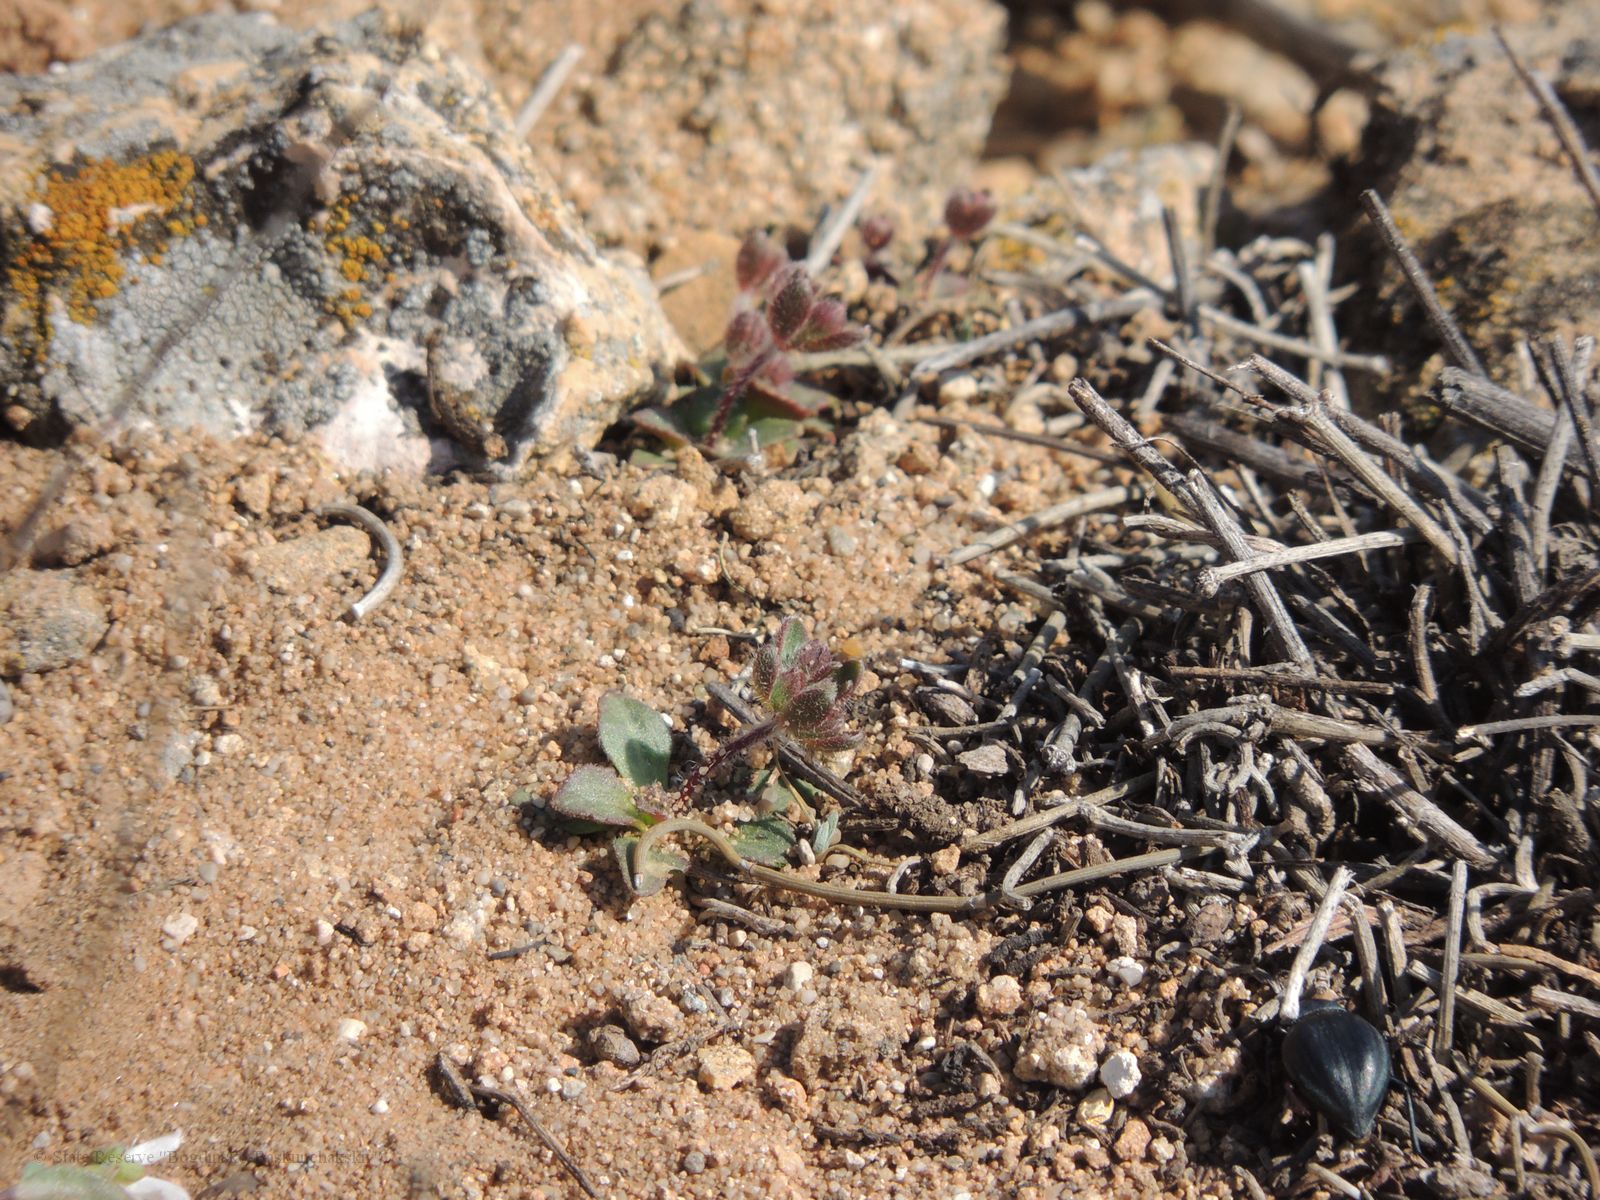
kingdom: Plantae
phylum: Tracheophyta
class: Magnoliopsida
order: Ericales
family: Primulaceae
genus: Androsace
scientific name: Androsace maxima
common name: Annual androsace
